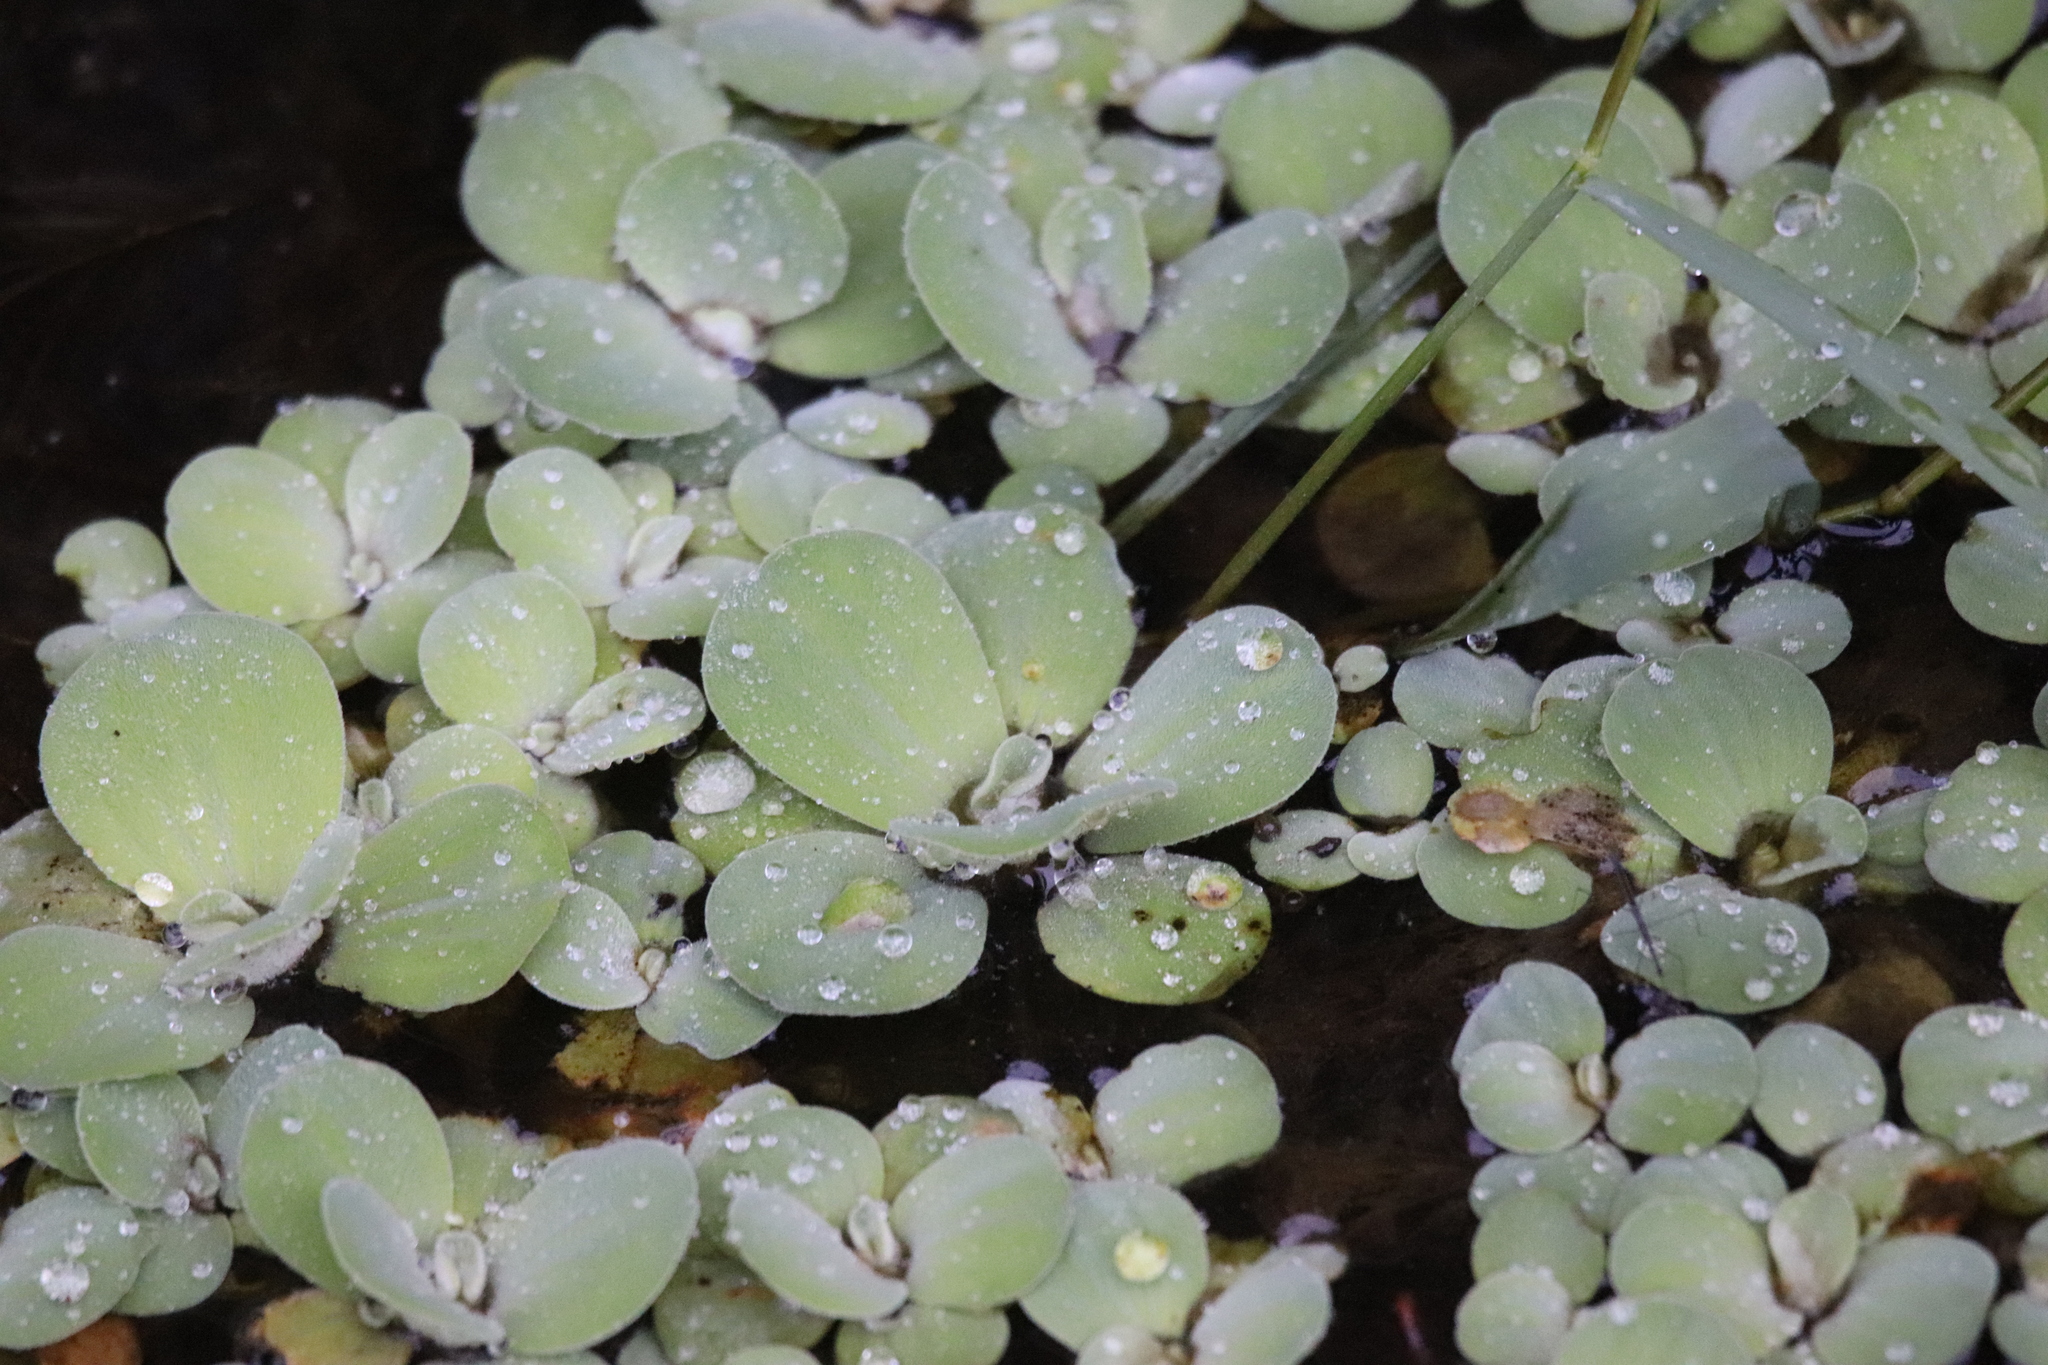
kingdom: Plantae
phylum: Tracheophyta
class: Liliopsida
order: Alismatales
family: Araceae
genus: Pistia
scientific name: Pistia stratiotes
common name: Water lettuce
